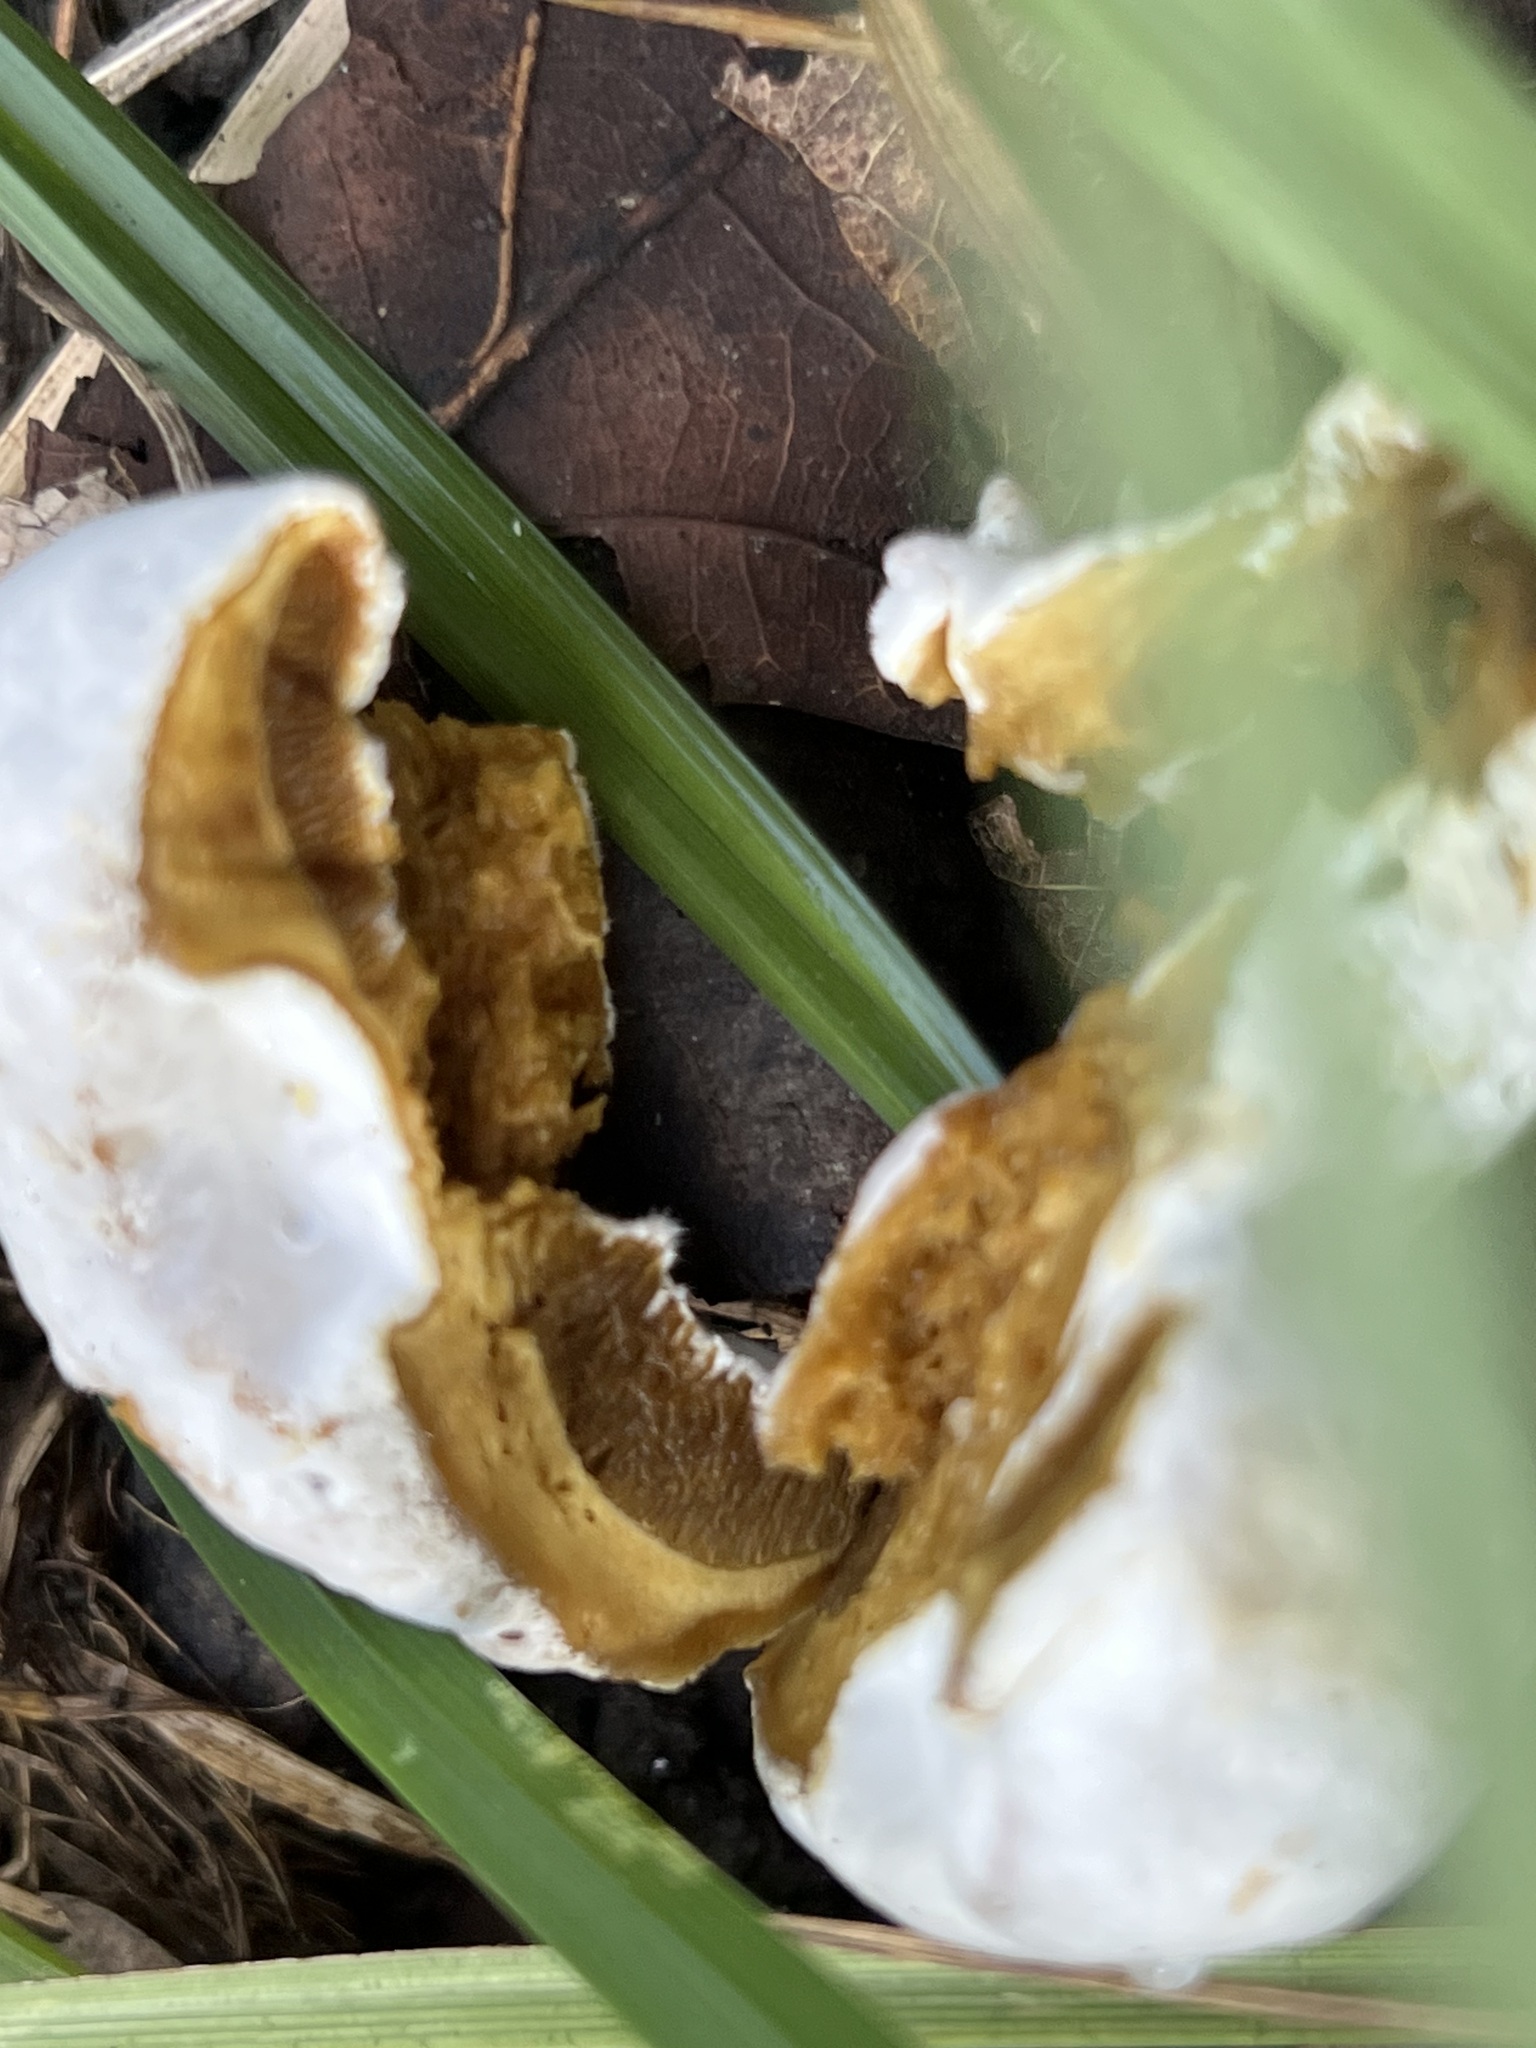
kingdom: Fungi
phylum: Ascomycota
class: Sordariomycetes
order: Hypocreales
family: Hypocreaceae
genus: Hypomyces
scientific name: Hypomyces chrysospermus
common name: Bolete mould
